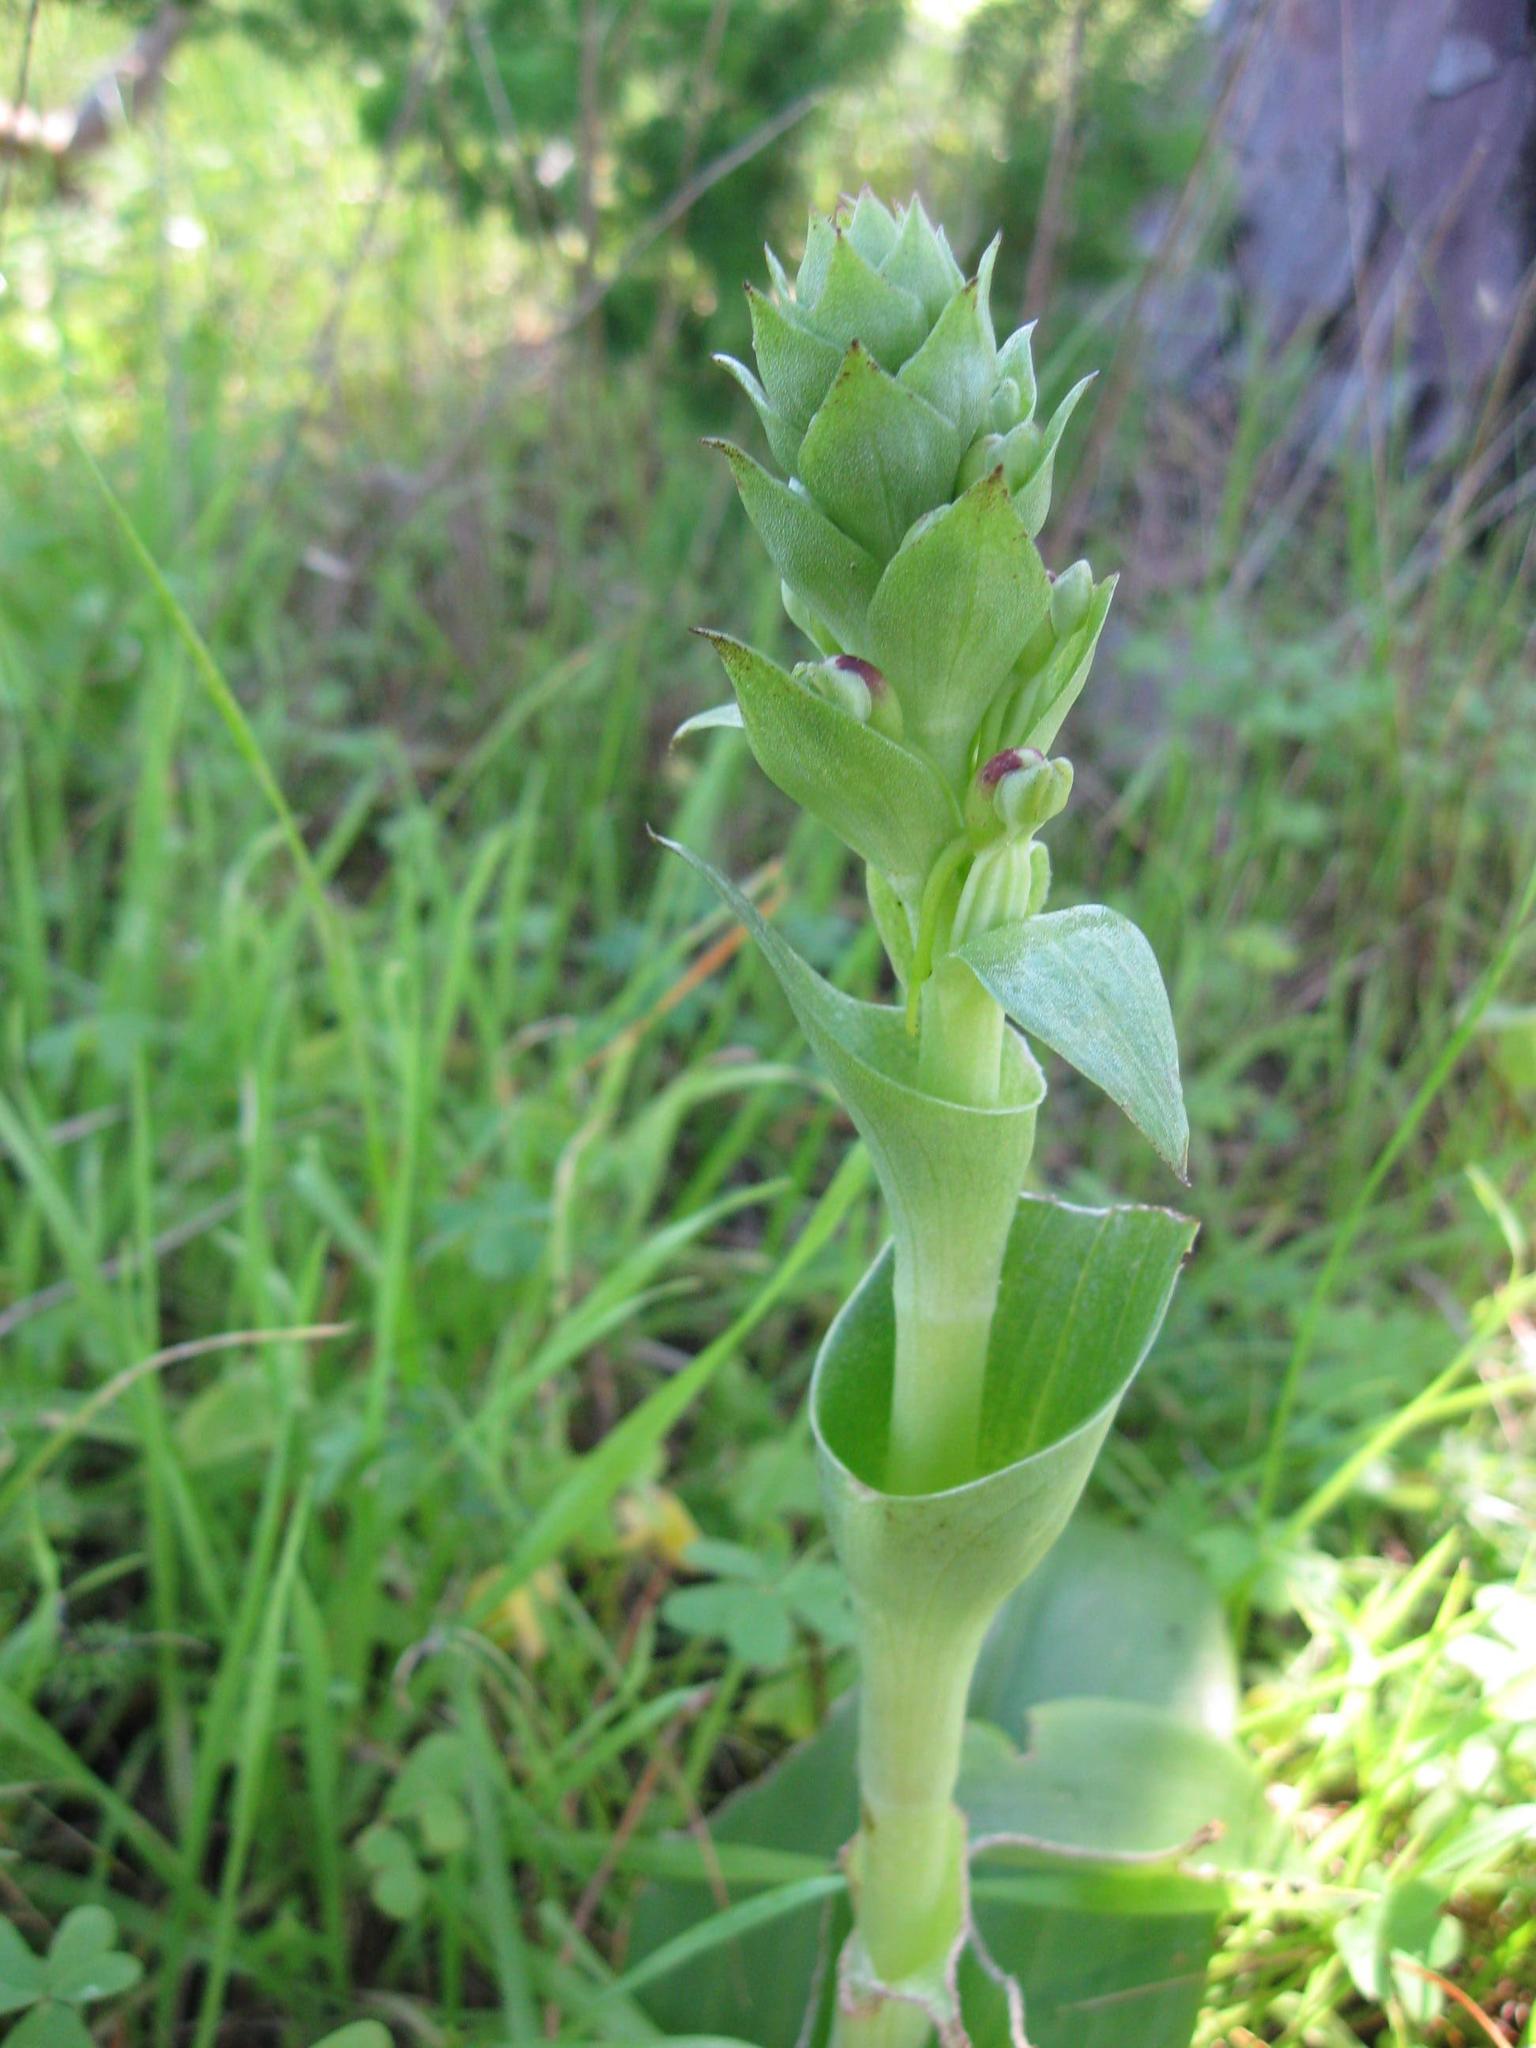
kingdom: Plantae
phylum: Tracheophyta
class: Liliopsida
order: Asparagales
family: Orchidaceae
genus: Satyrium
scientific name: Satyrium odorum
